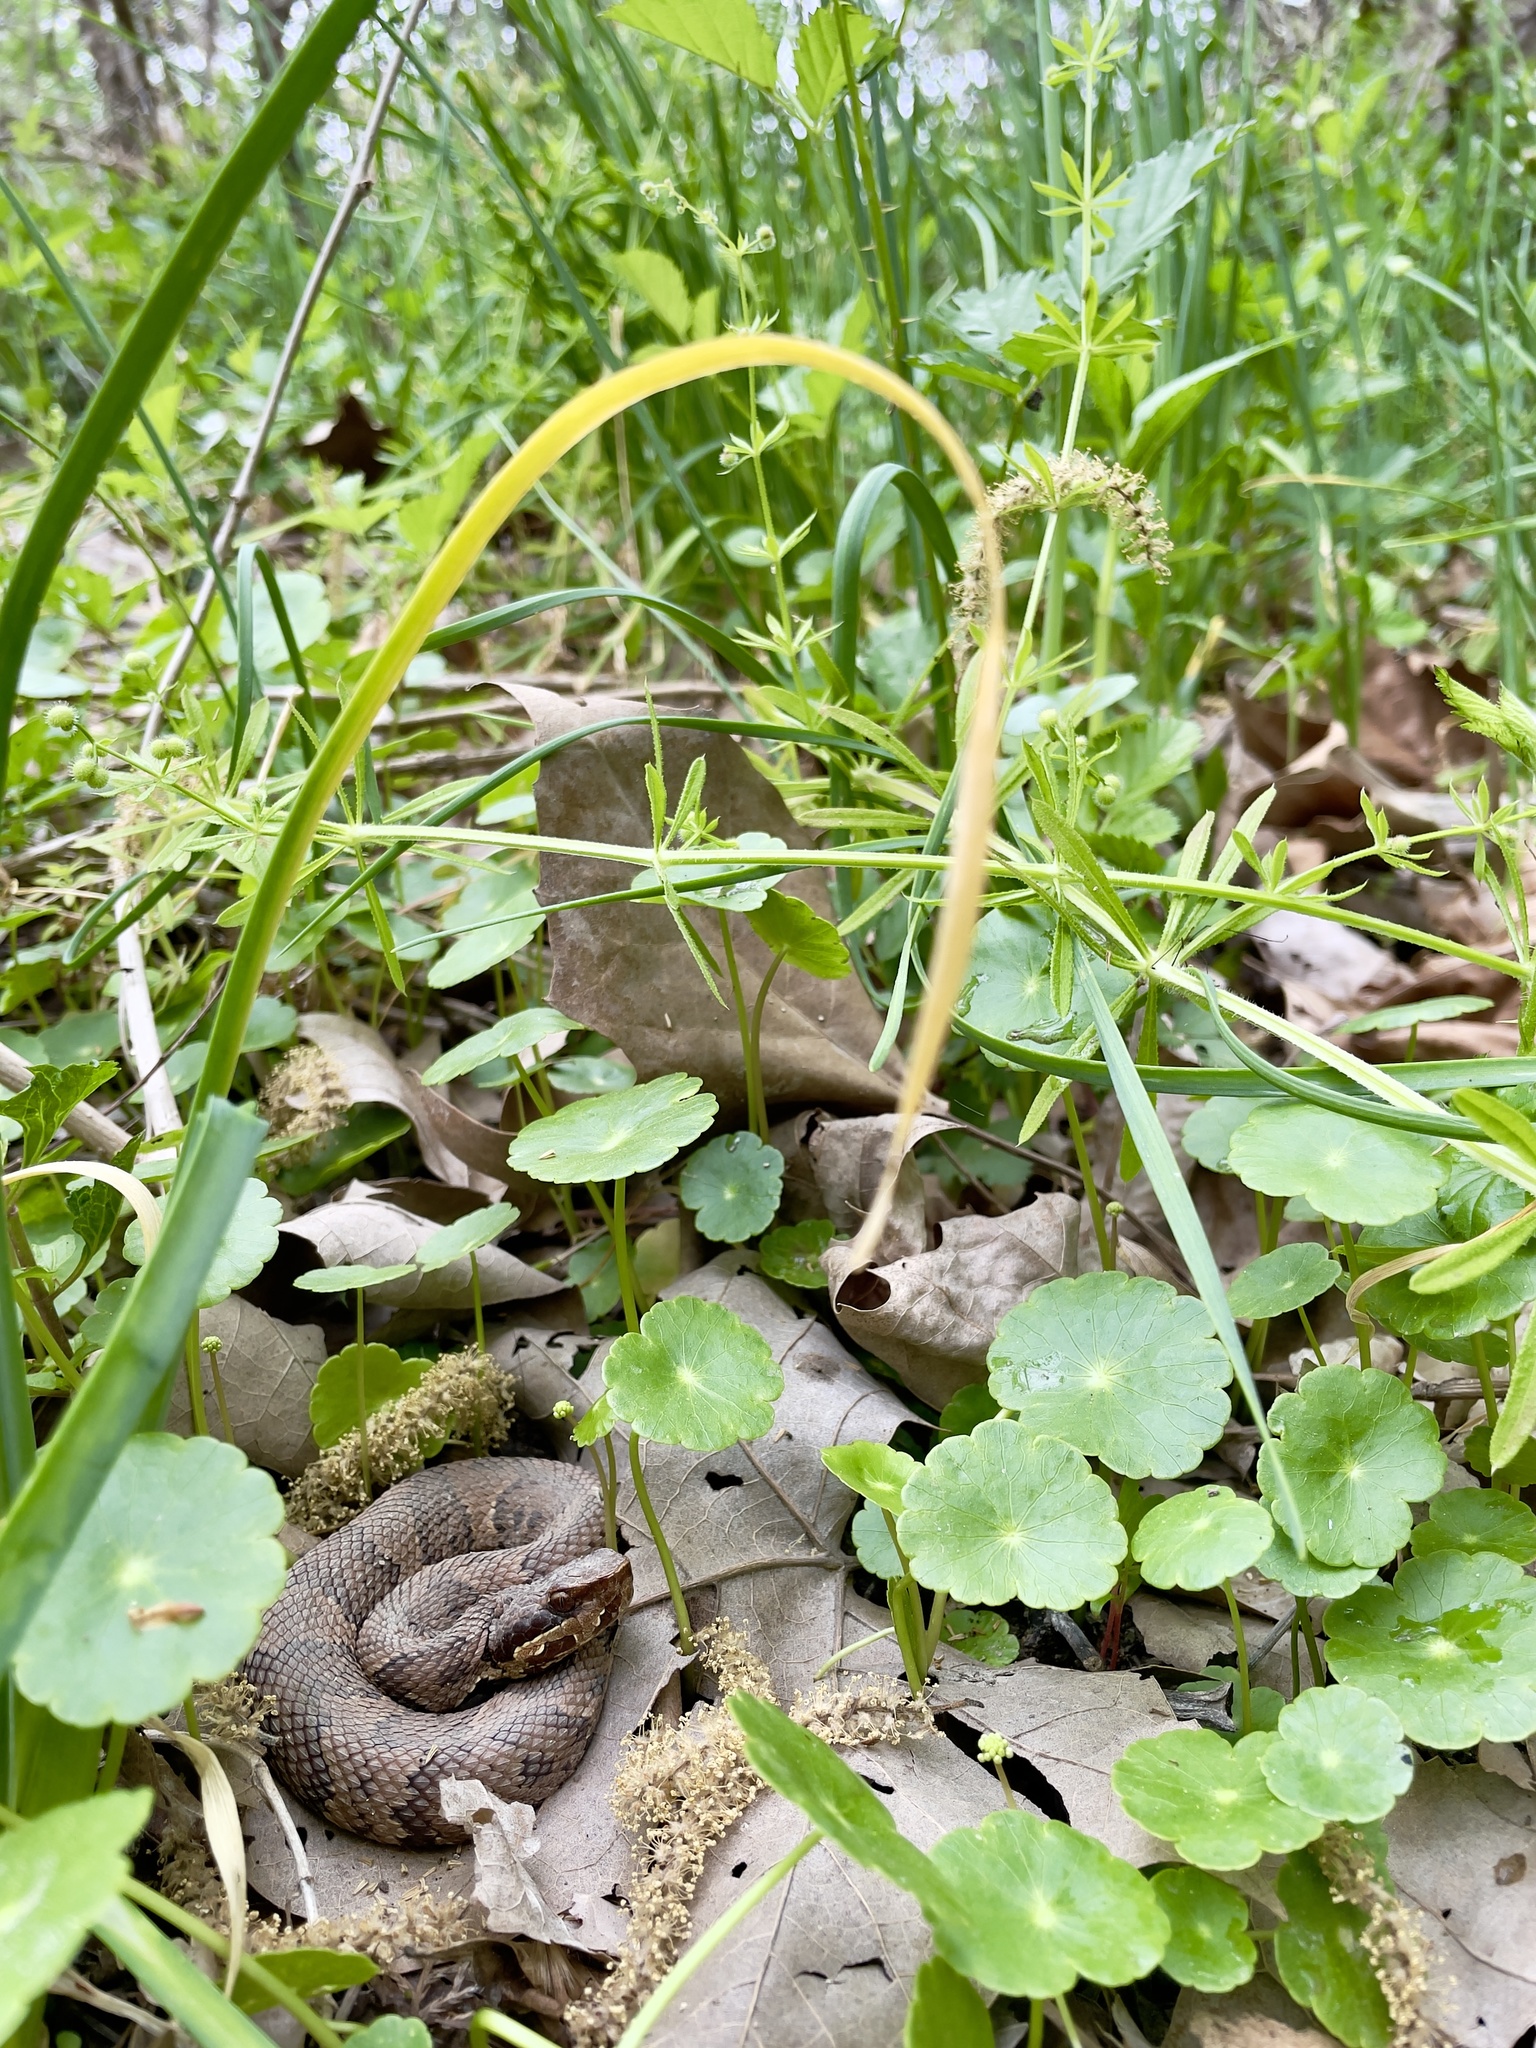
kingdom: Animalia
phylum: Chordata
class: Squamata
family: Viperidae
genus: Agkistrodon
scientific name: Agkistrodon piscivorus
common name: Cottonmouth
